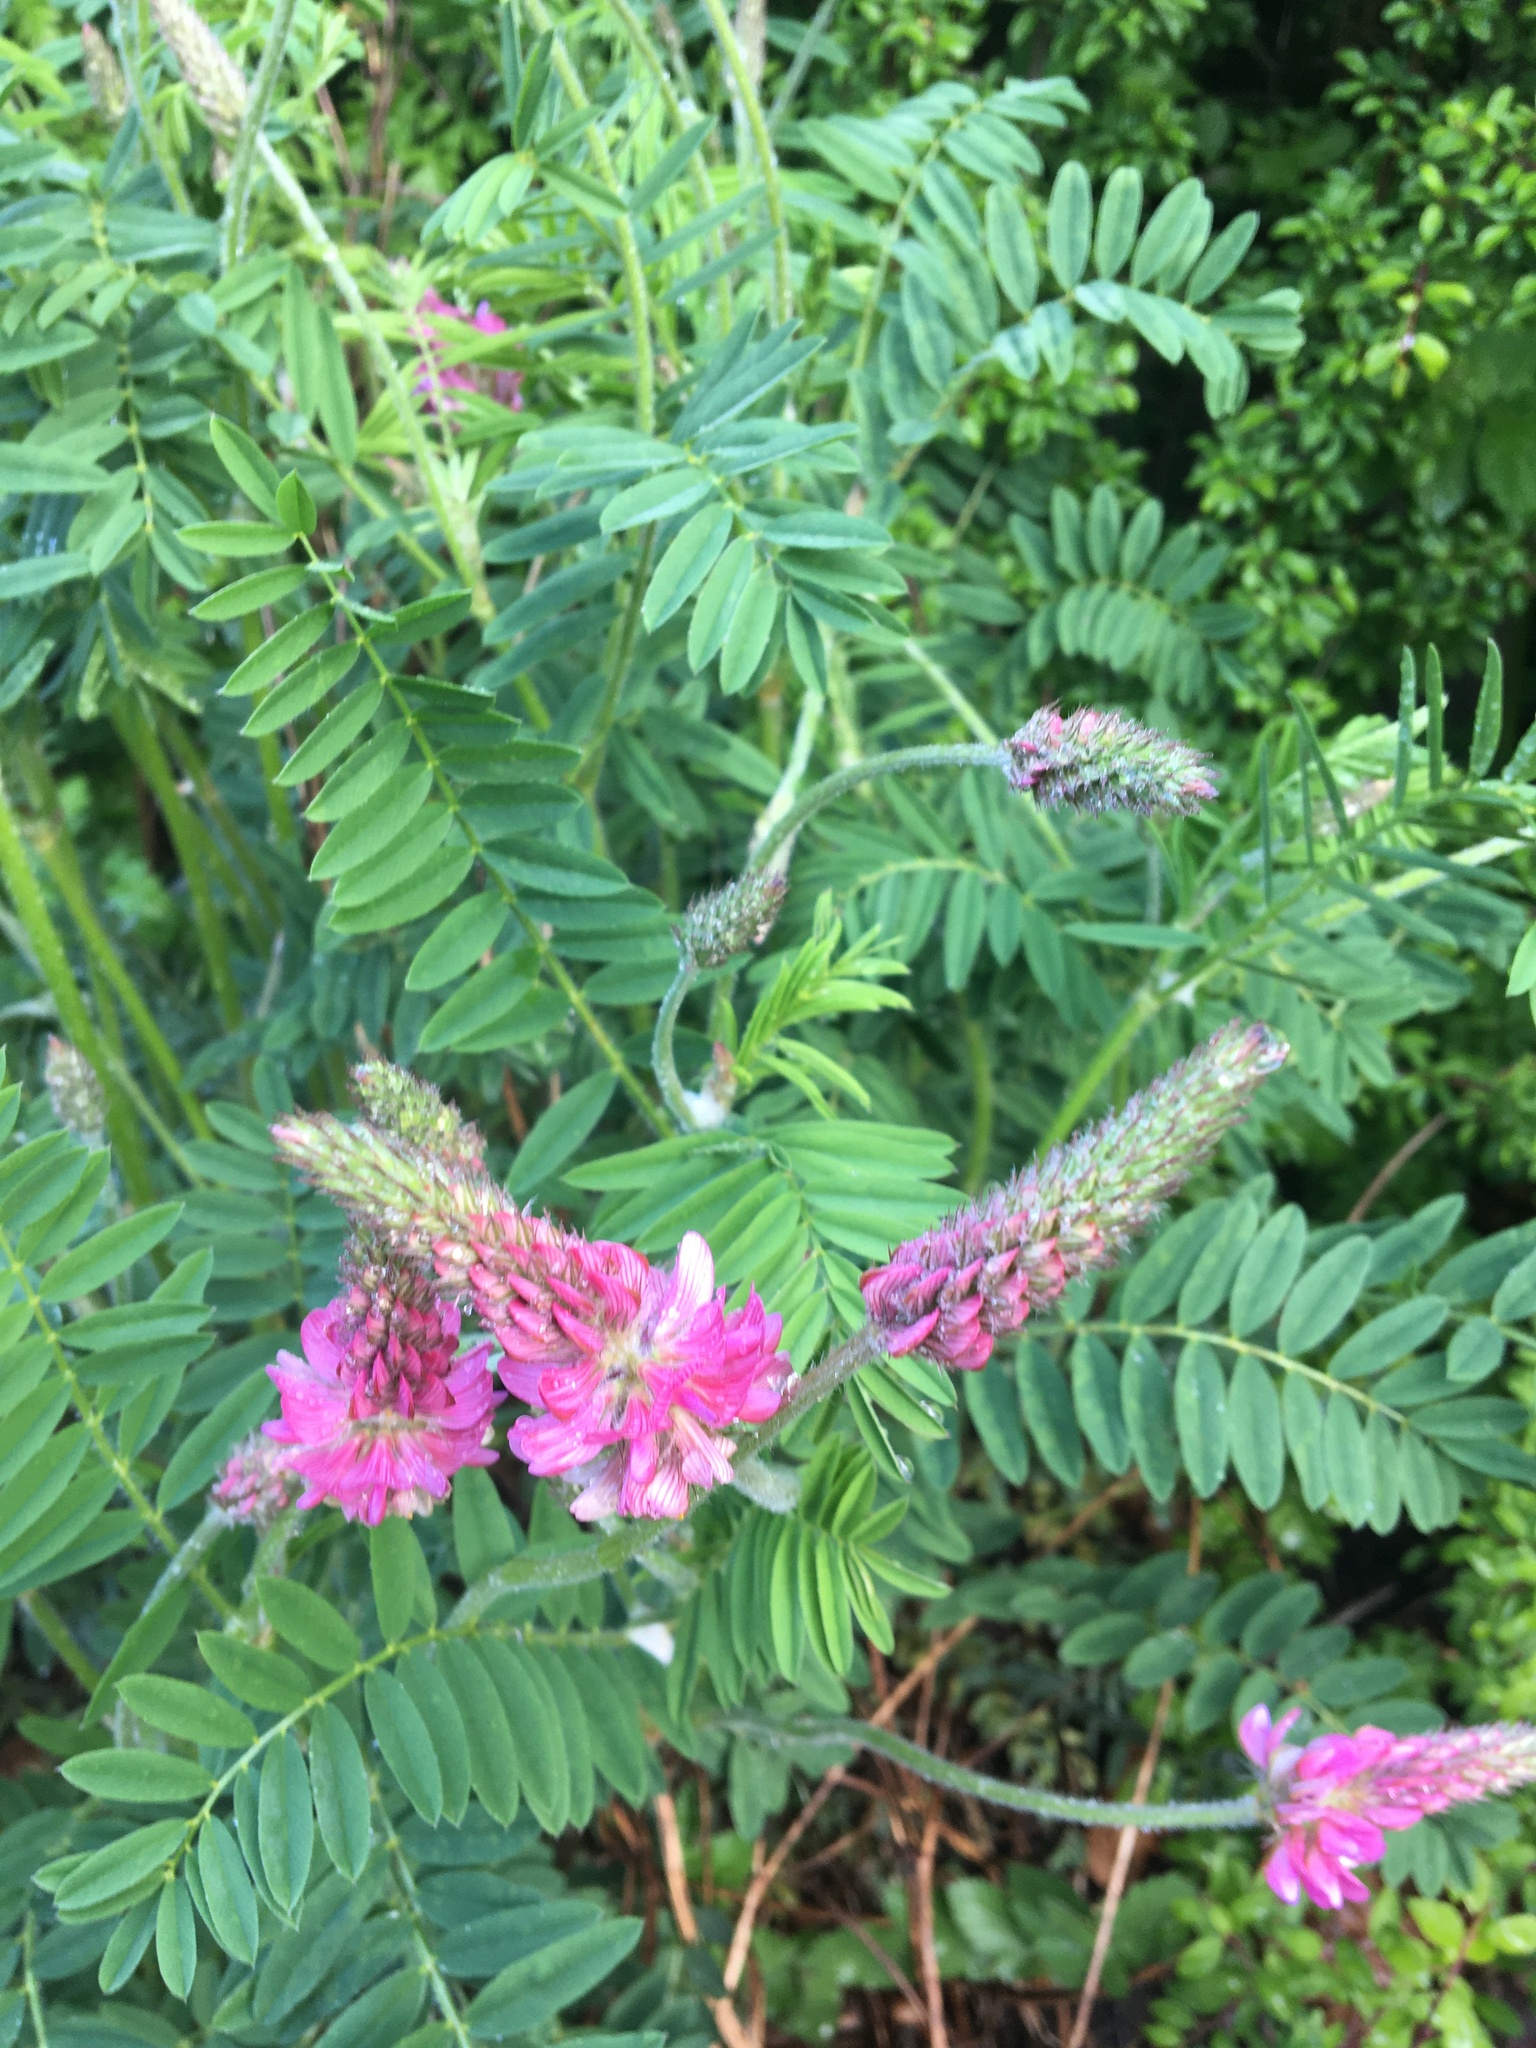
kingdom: Plantae
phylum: Tracheophyta
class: Magnoliopsida
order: Fabales
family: Fabaceae
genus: Onobrychis
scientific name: Onobrychis viciifolia
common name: Sainfoin
